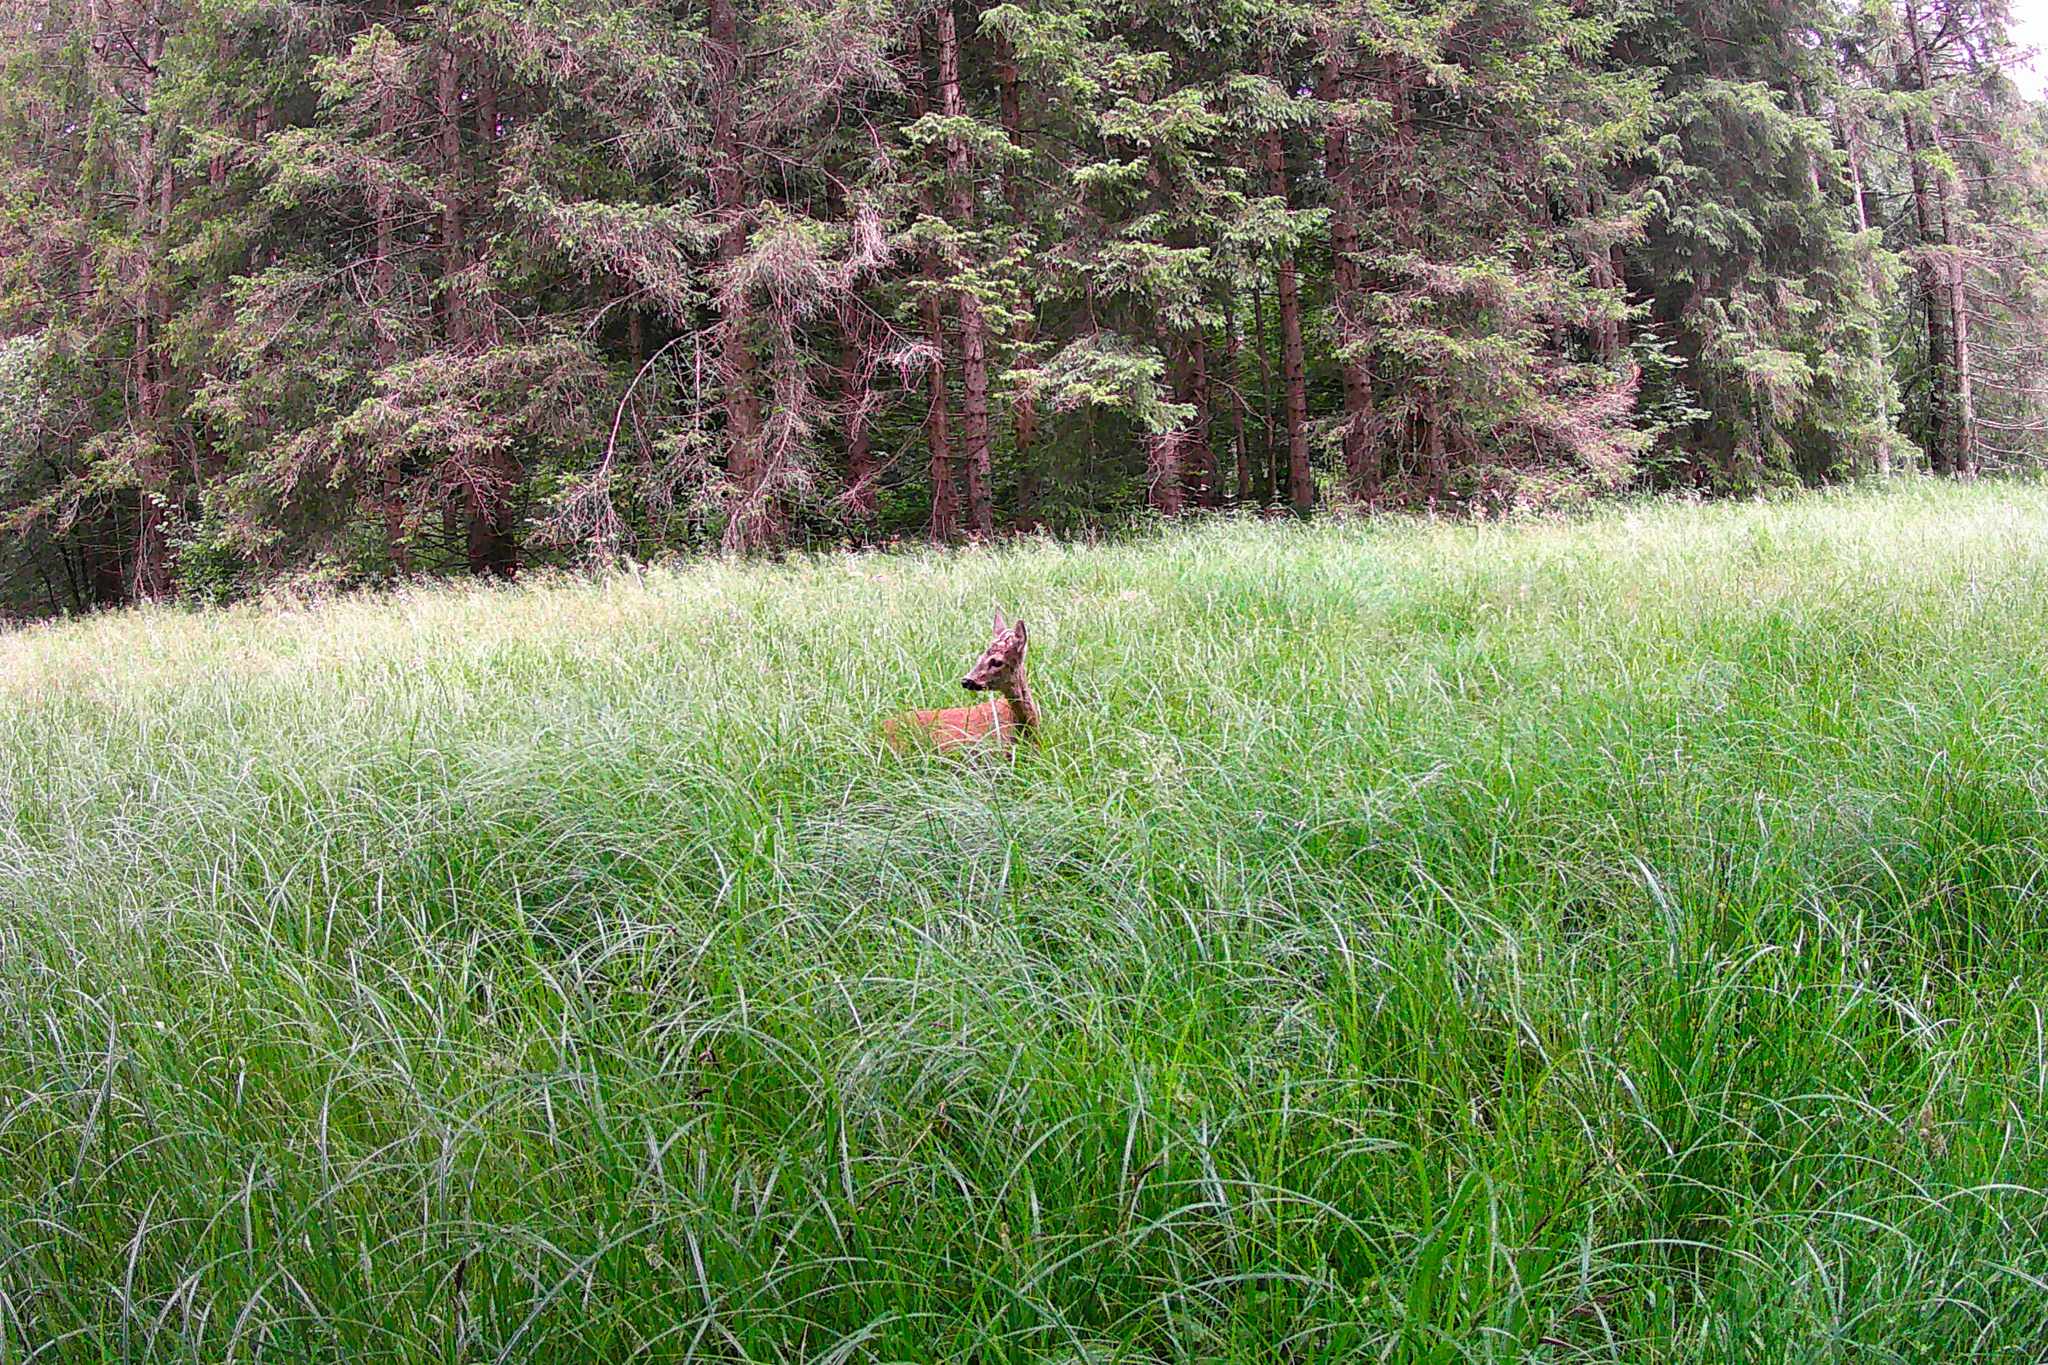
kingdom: Animalia
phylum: Chordata
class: Mammalia
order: Artiodactyla
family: Cervidae
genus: Capreolus
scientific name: Capreolus capreolus
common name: Western roe deer
